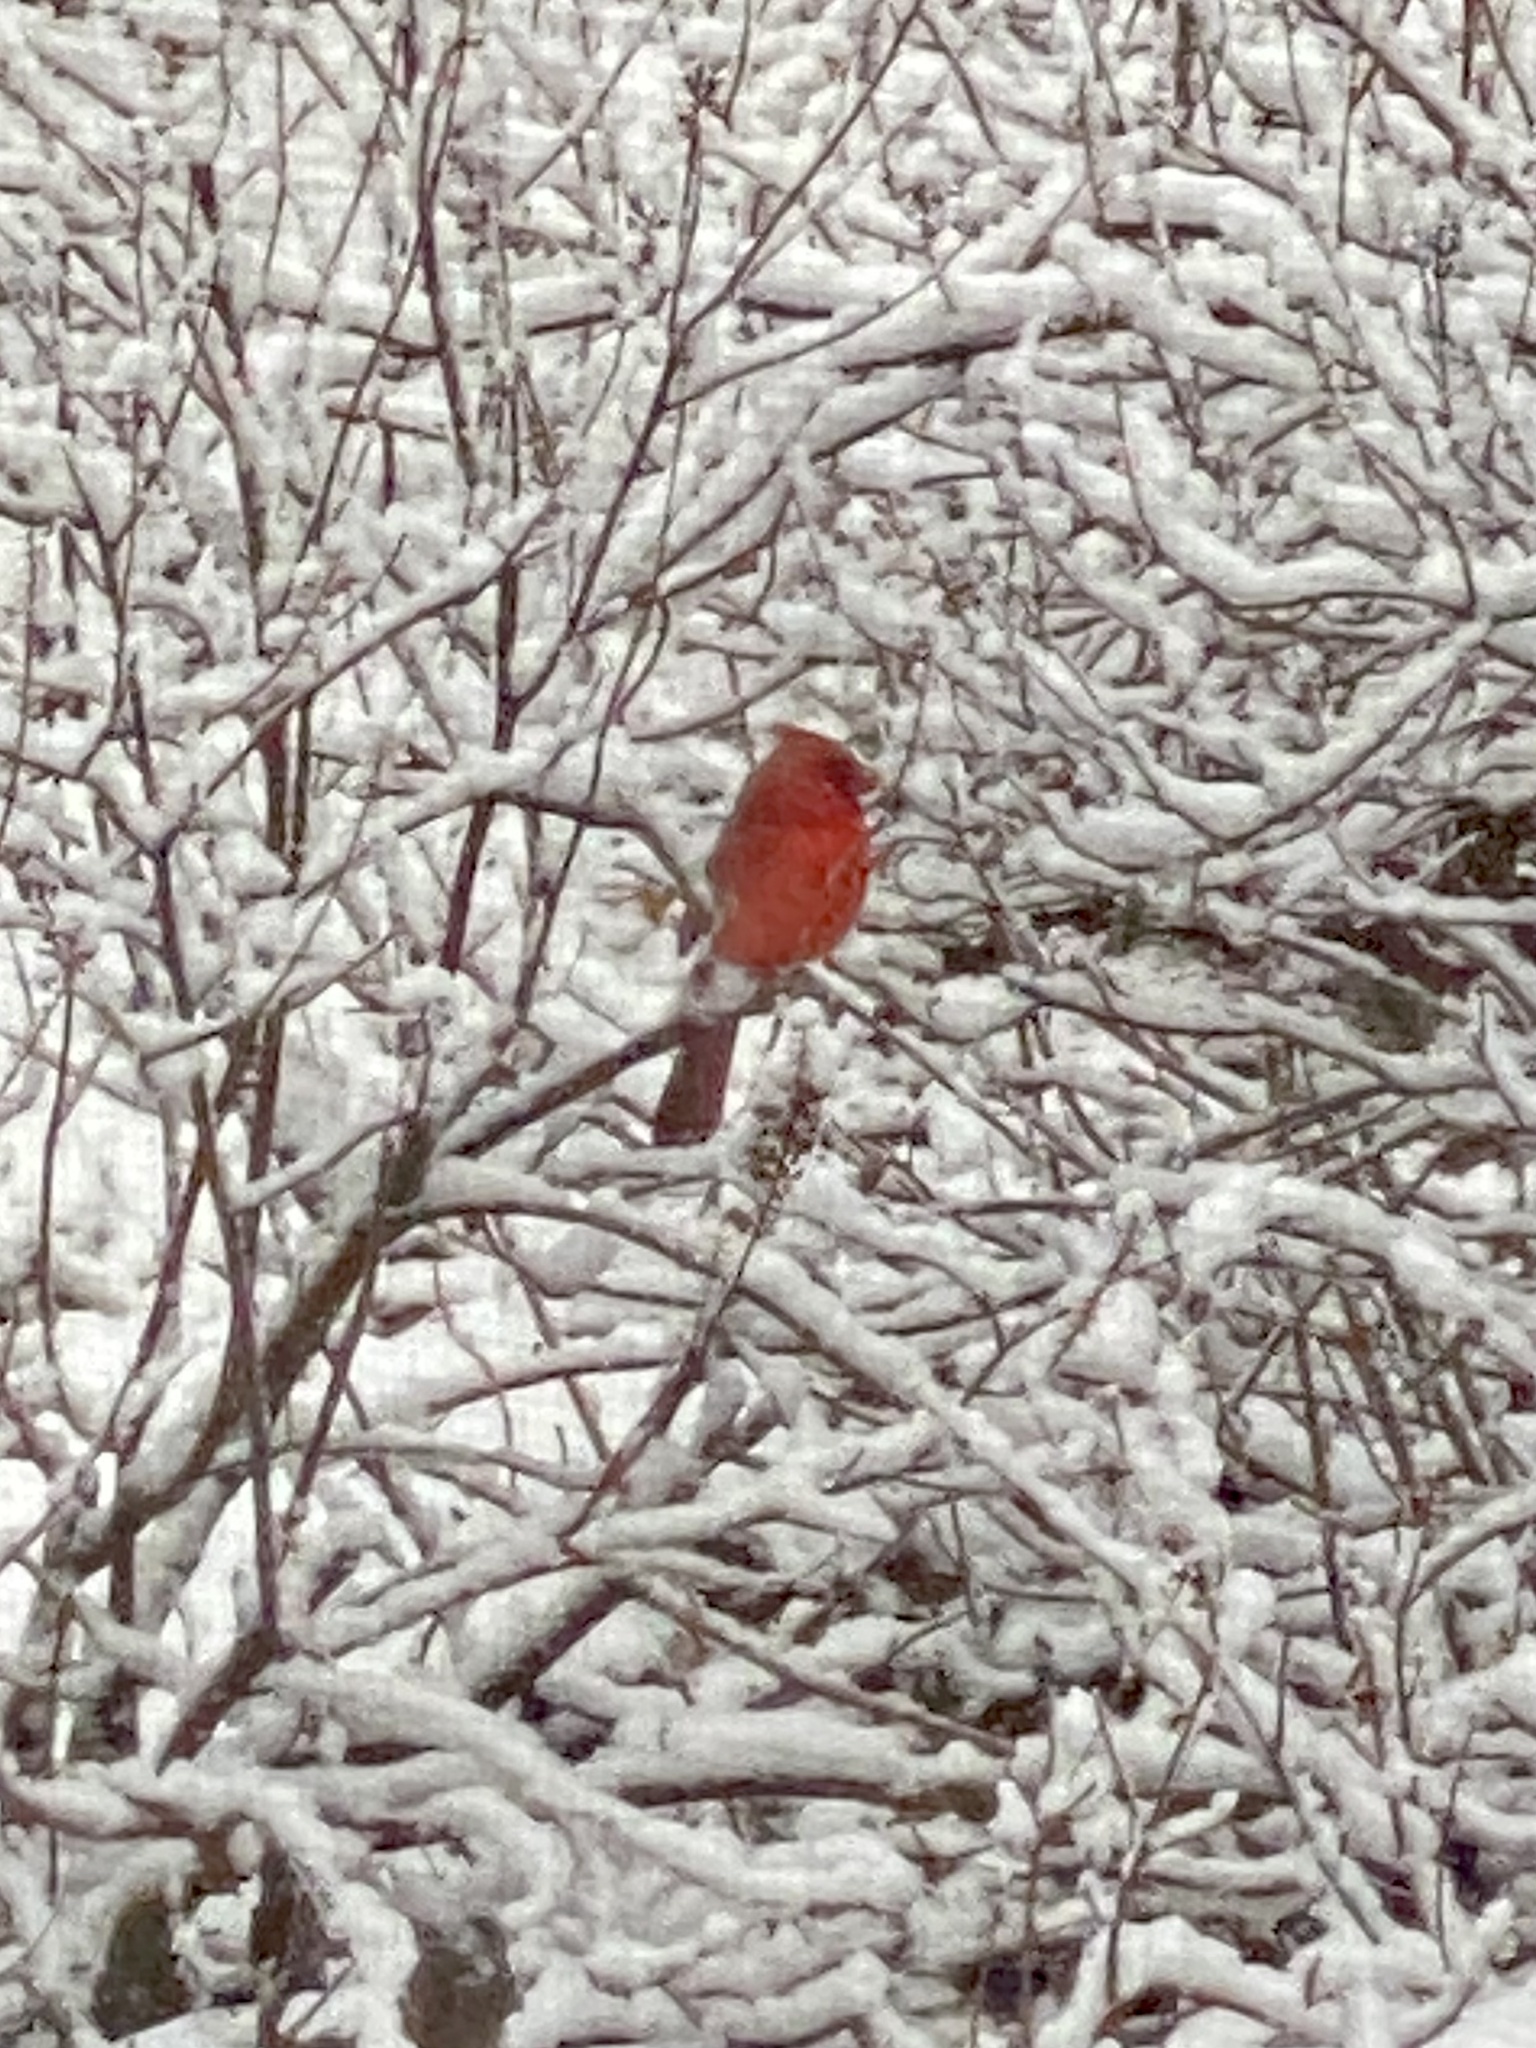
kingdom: Animalia
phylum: Chordata
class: Aves
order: Passeriformes
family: Cardinalidae
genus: Cardinalis
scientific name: Cardinalis cardinalis
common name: Northern cardinal
